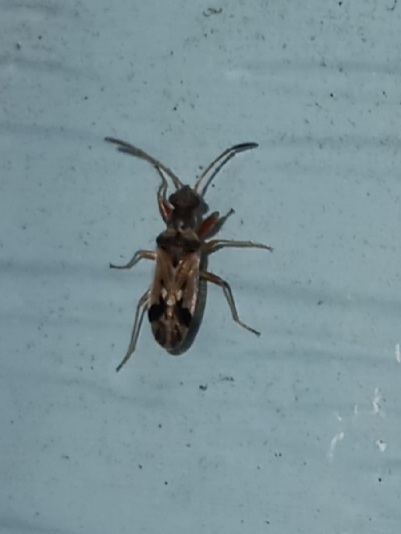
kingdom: Animalia
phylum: Arthropoda
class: Insecta
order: Hemiptera
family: Rhyparochromidae
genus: Pseudopachybrachius
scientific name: Pseudopachybrachius vinctus
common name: Dirt-colored seed bug
